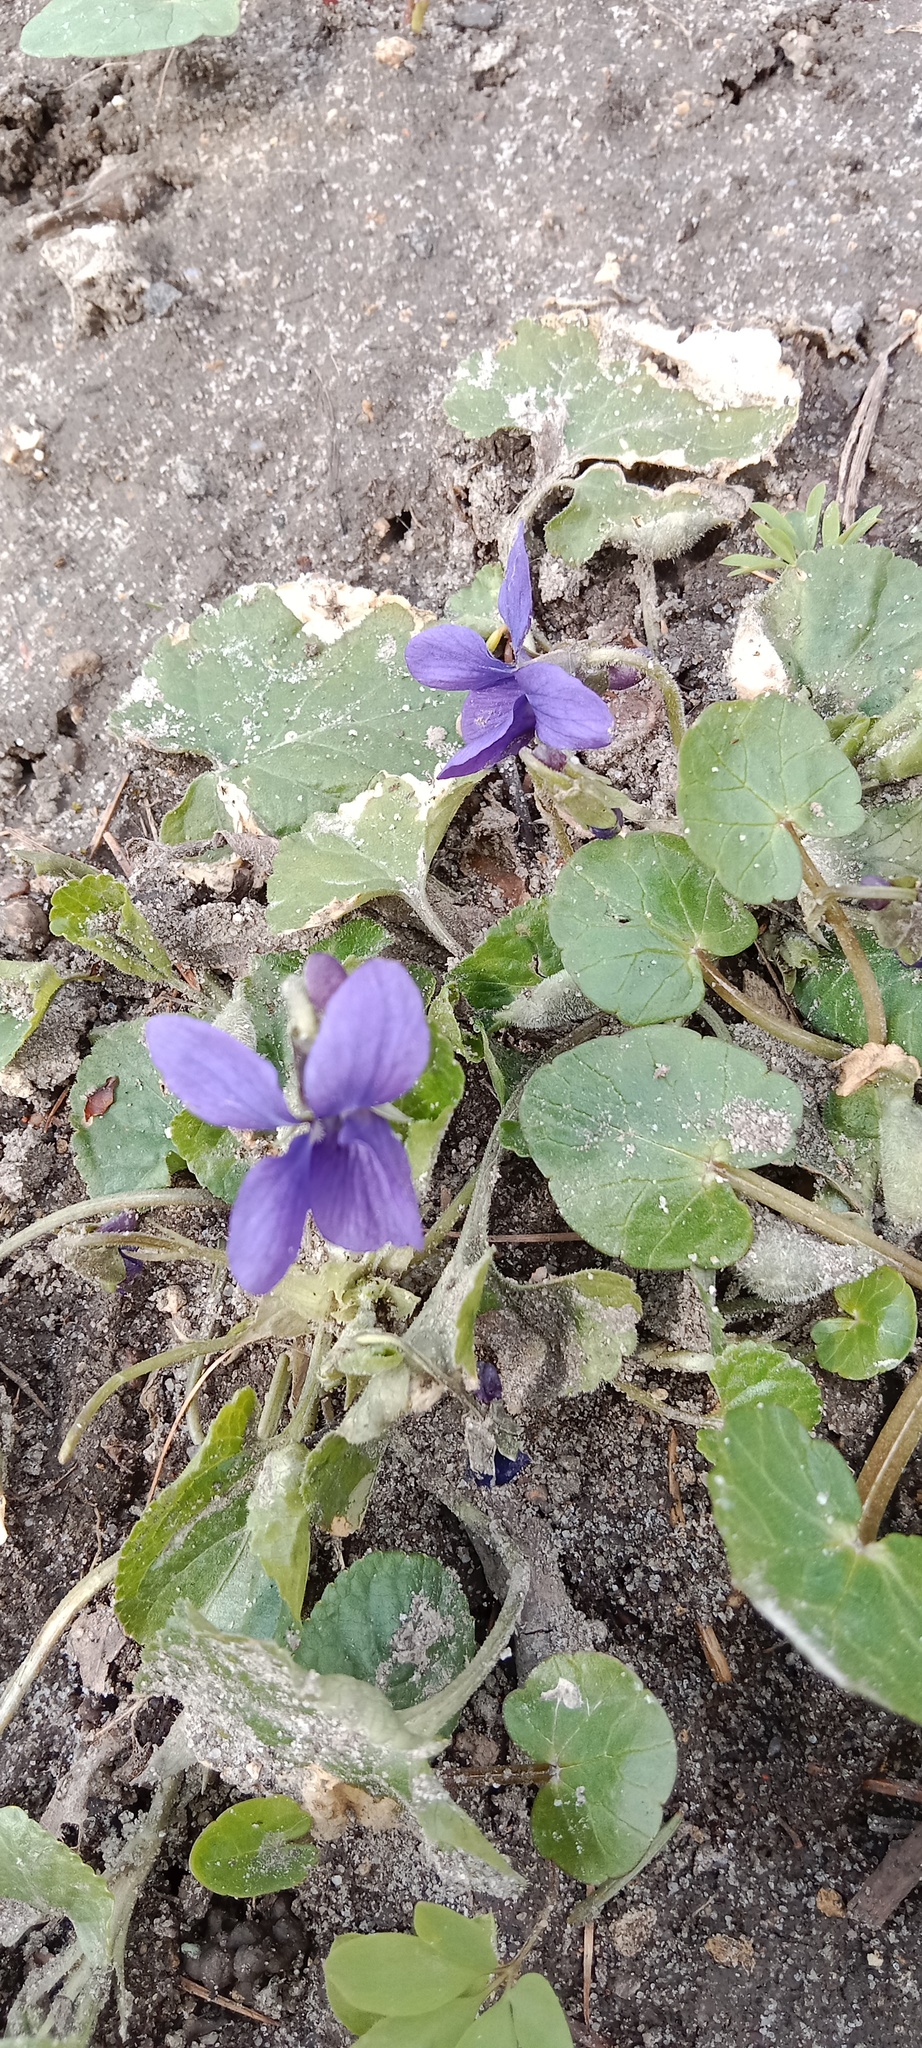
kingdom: Plantae
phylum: Tracheophyta
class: Magnoliopsida
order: Malpighiales
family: Violaceae
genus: Viola
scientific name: Viola odorata
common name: Sweet violet
